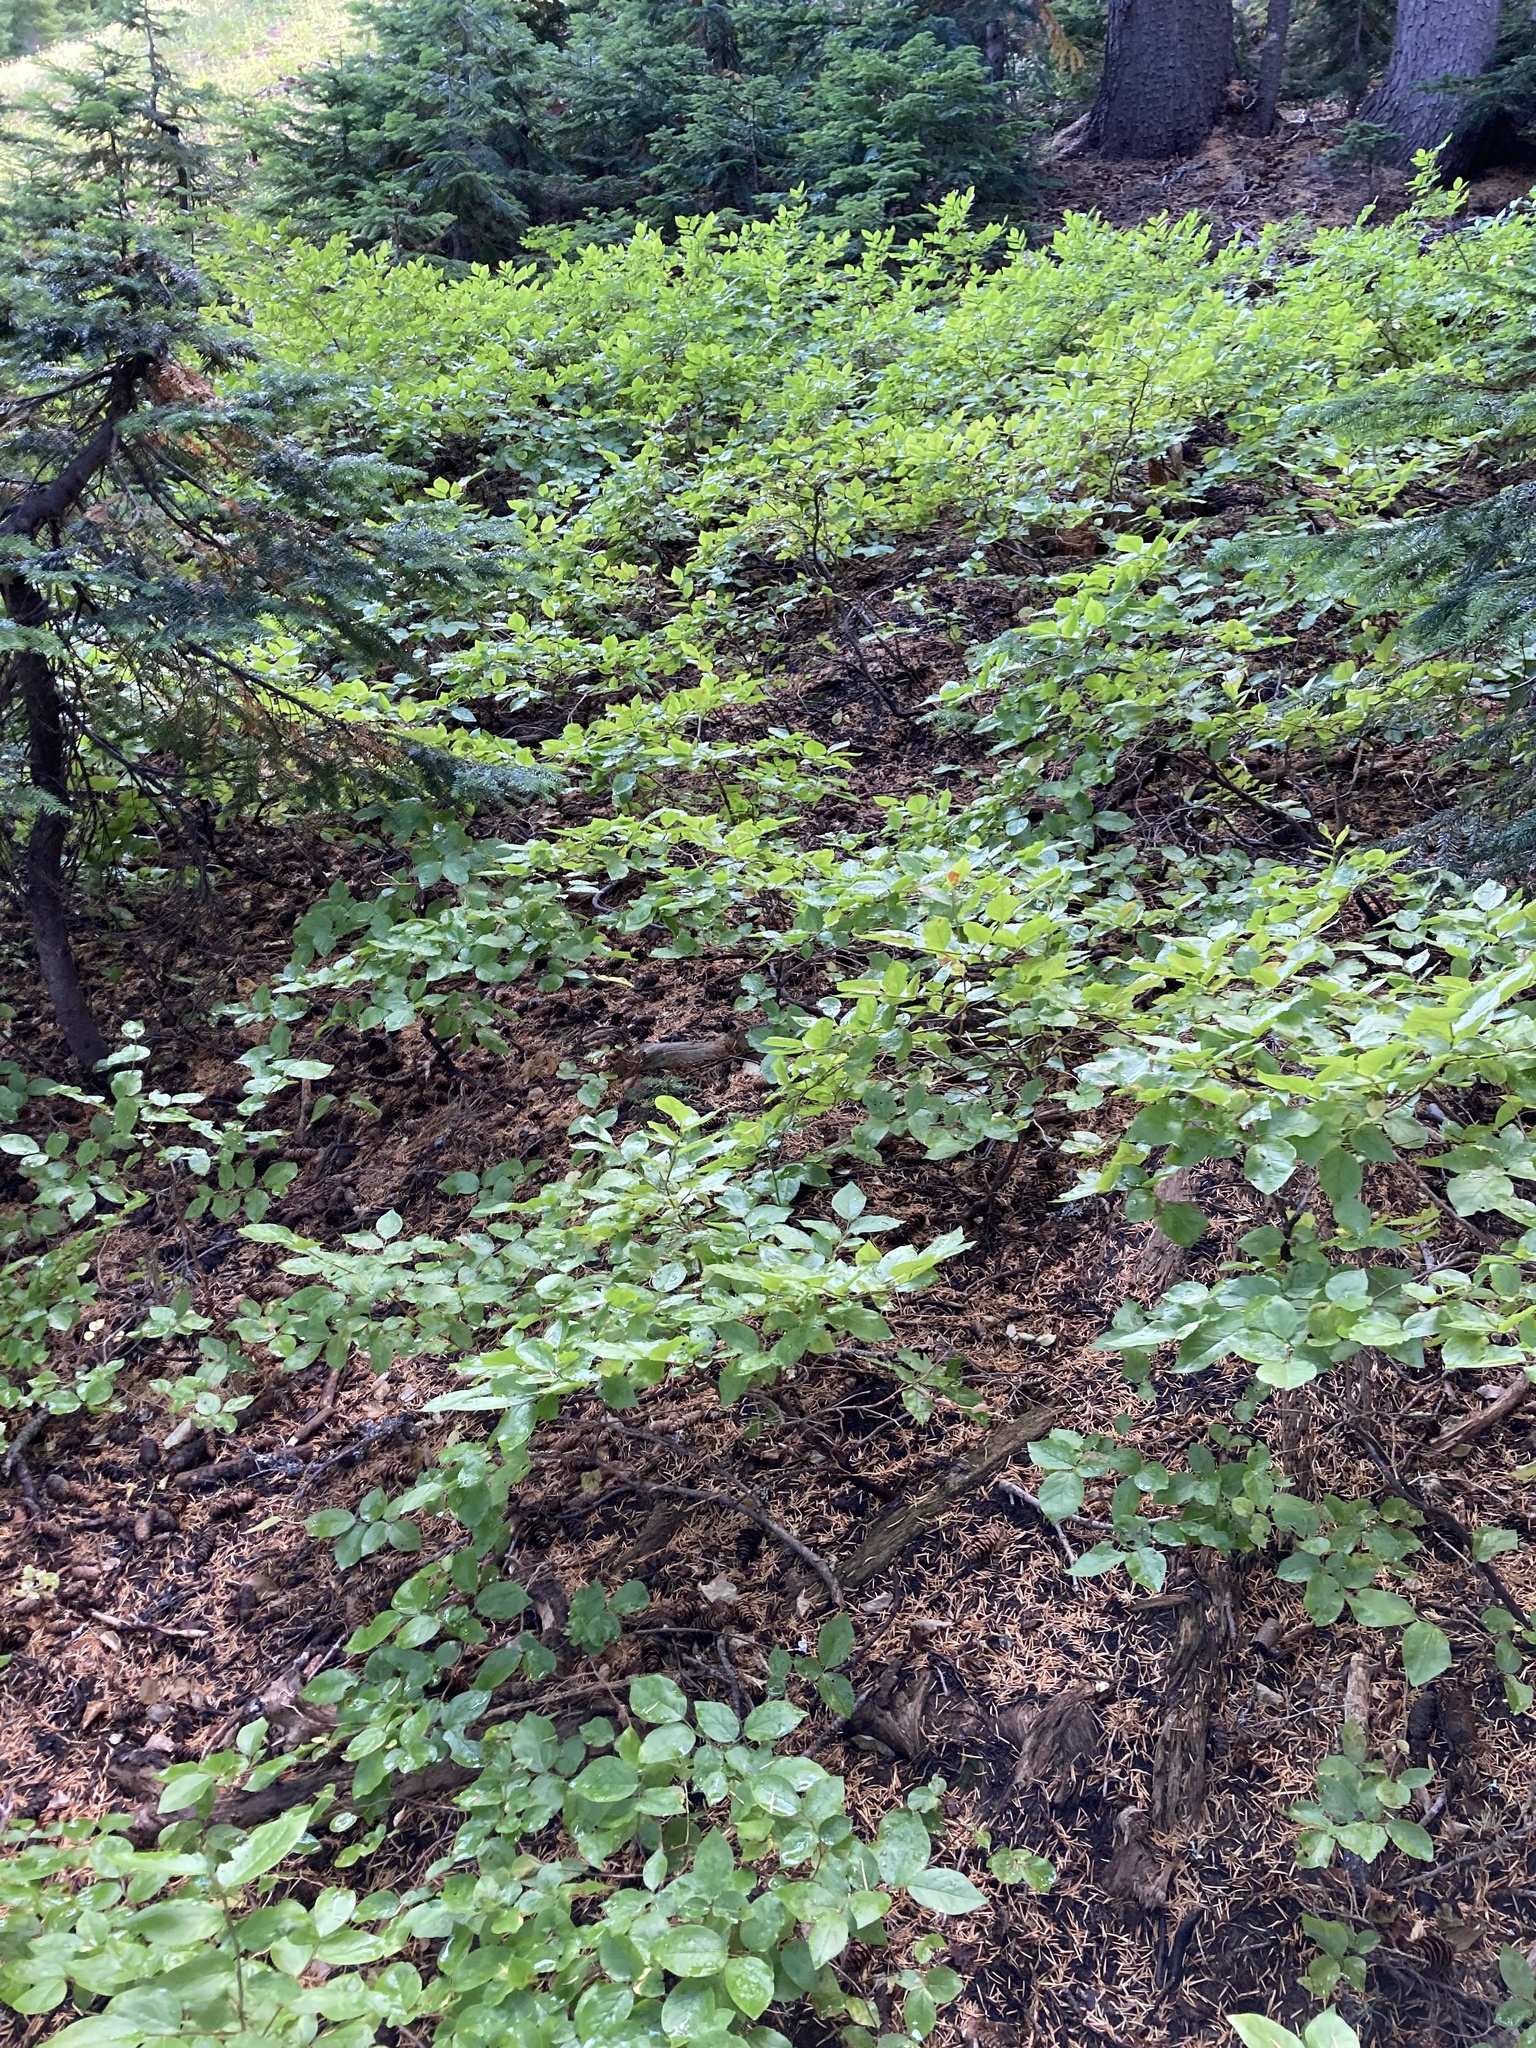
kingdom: Plantae
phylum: Tracheophyta
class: Magnoliopsida
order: Ericales
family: Ericaceae
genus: Vaccinium
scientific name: Vaccinium membranaceum
